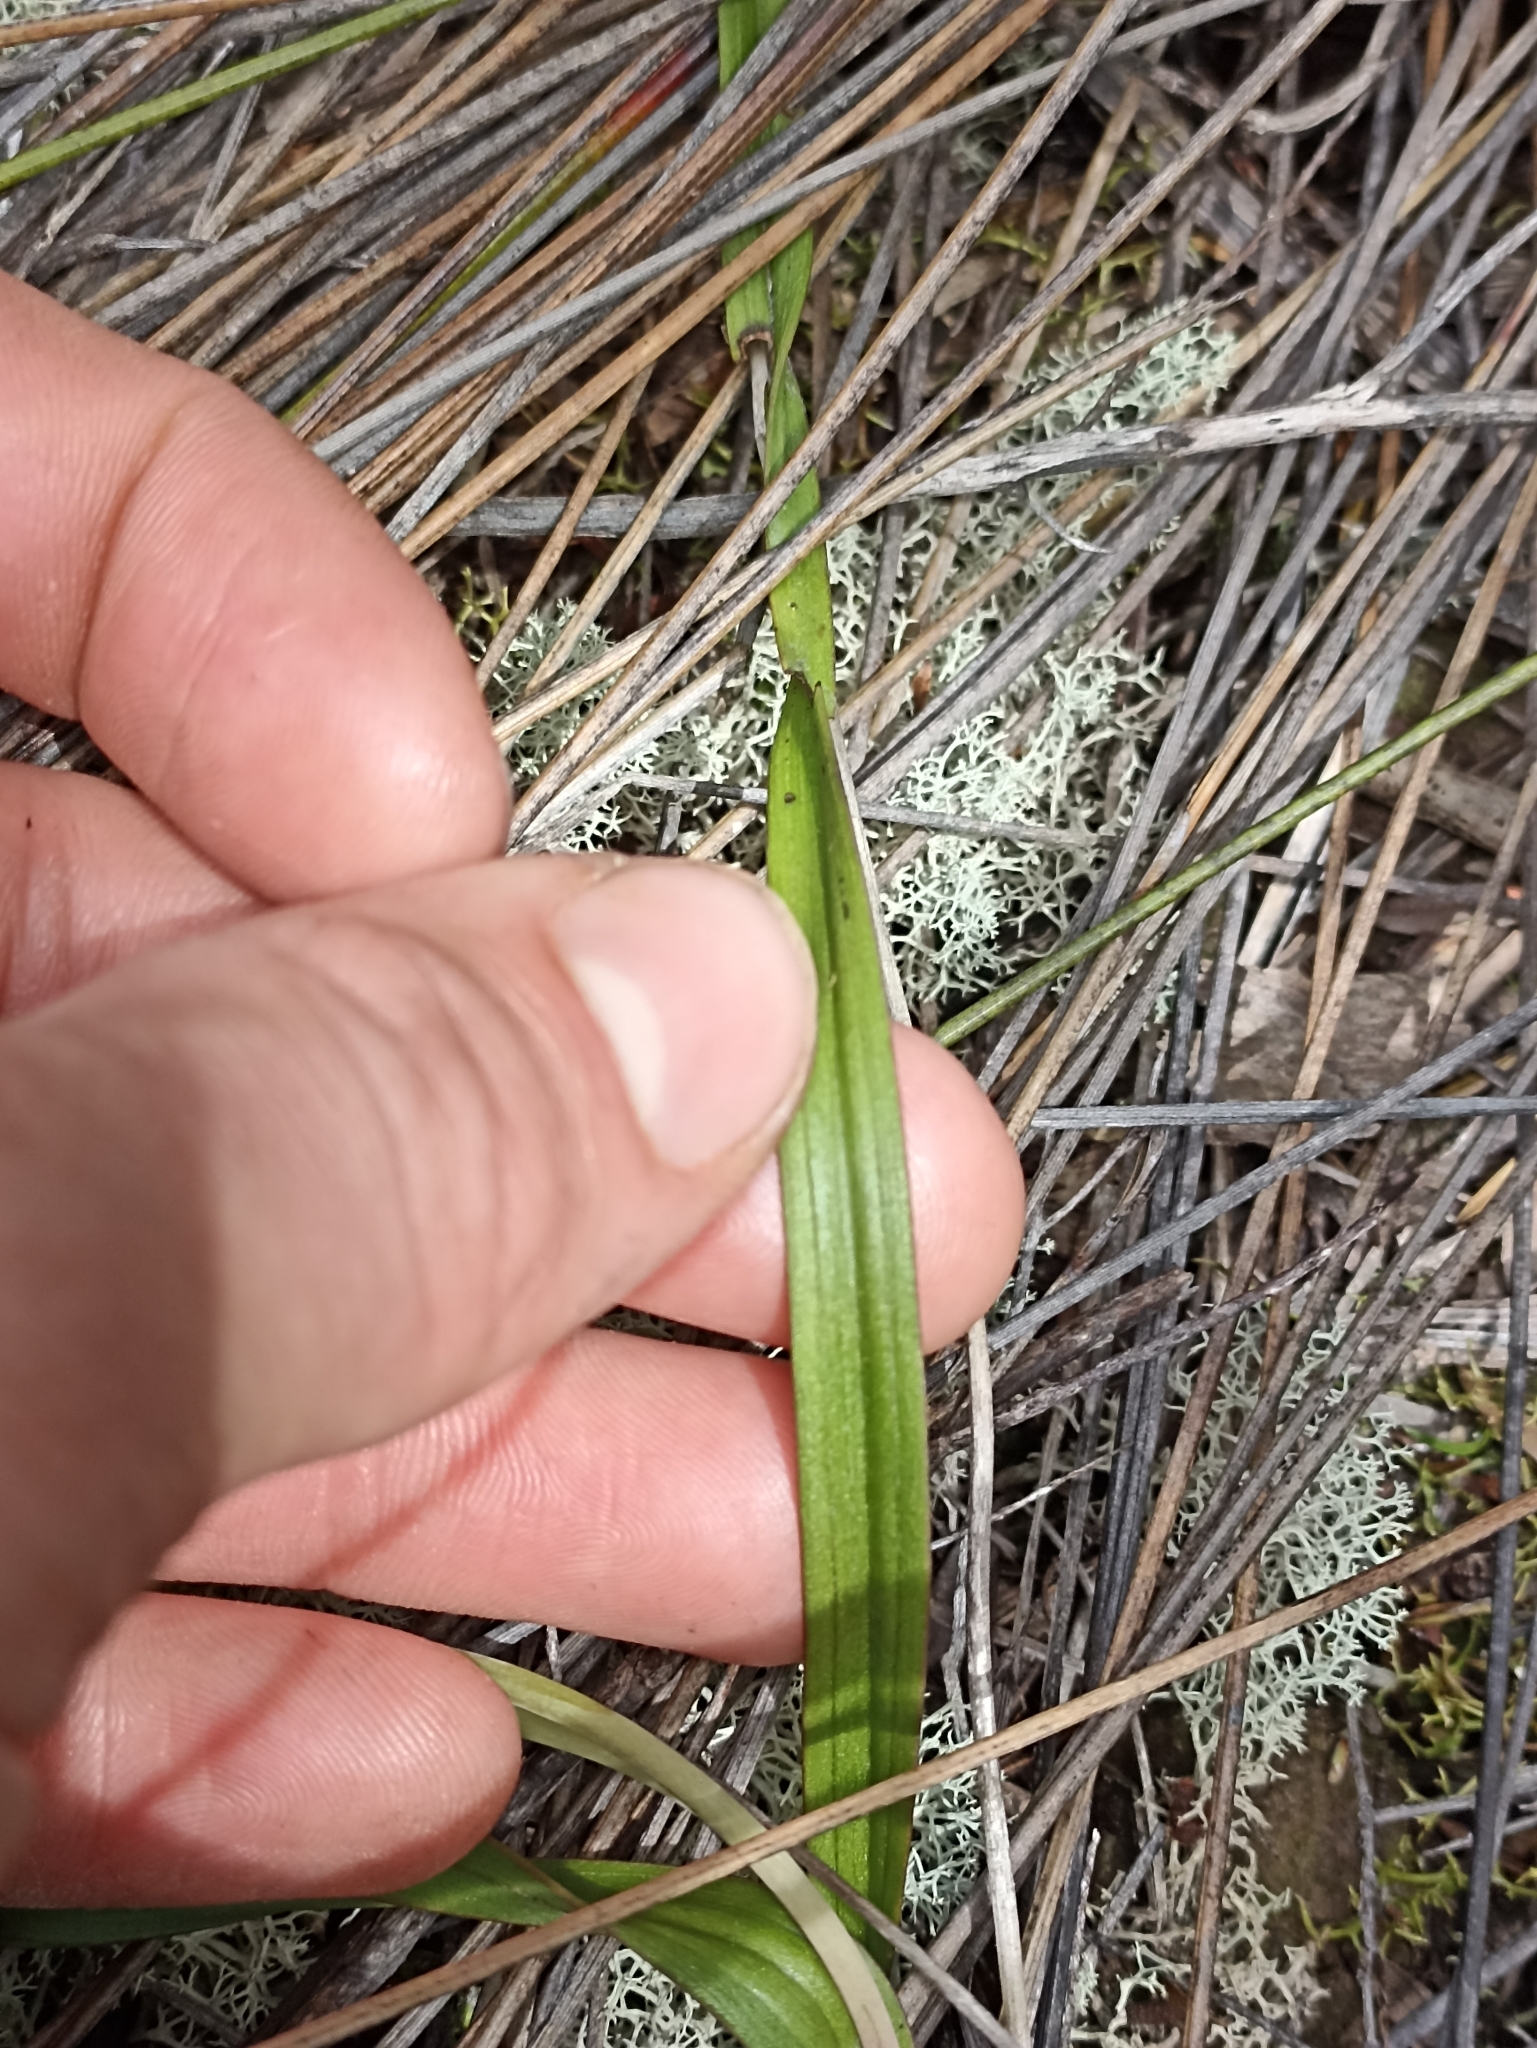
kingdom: Plantae
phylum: Tracheophyta
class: Liliopsida
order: Asparagales
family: Orchidaceae
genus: Thelymitra
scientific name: Thelymitra longifolia
